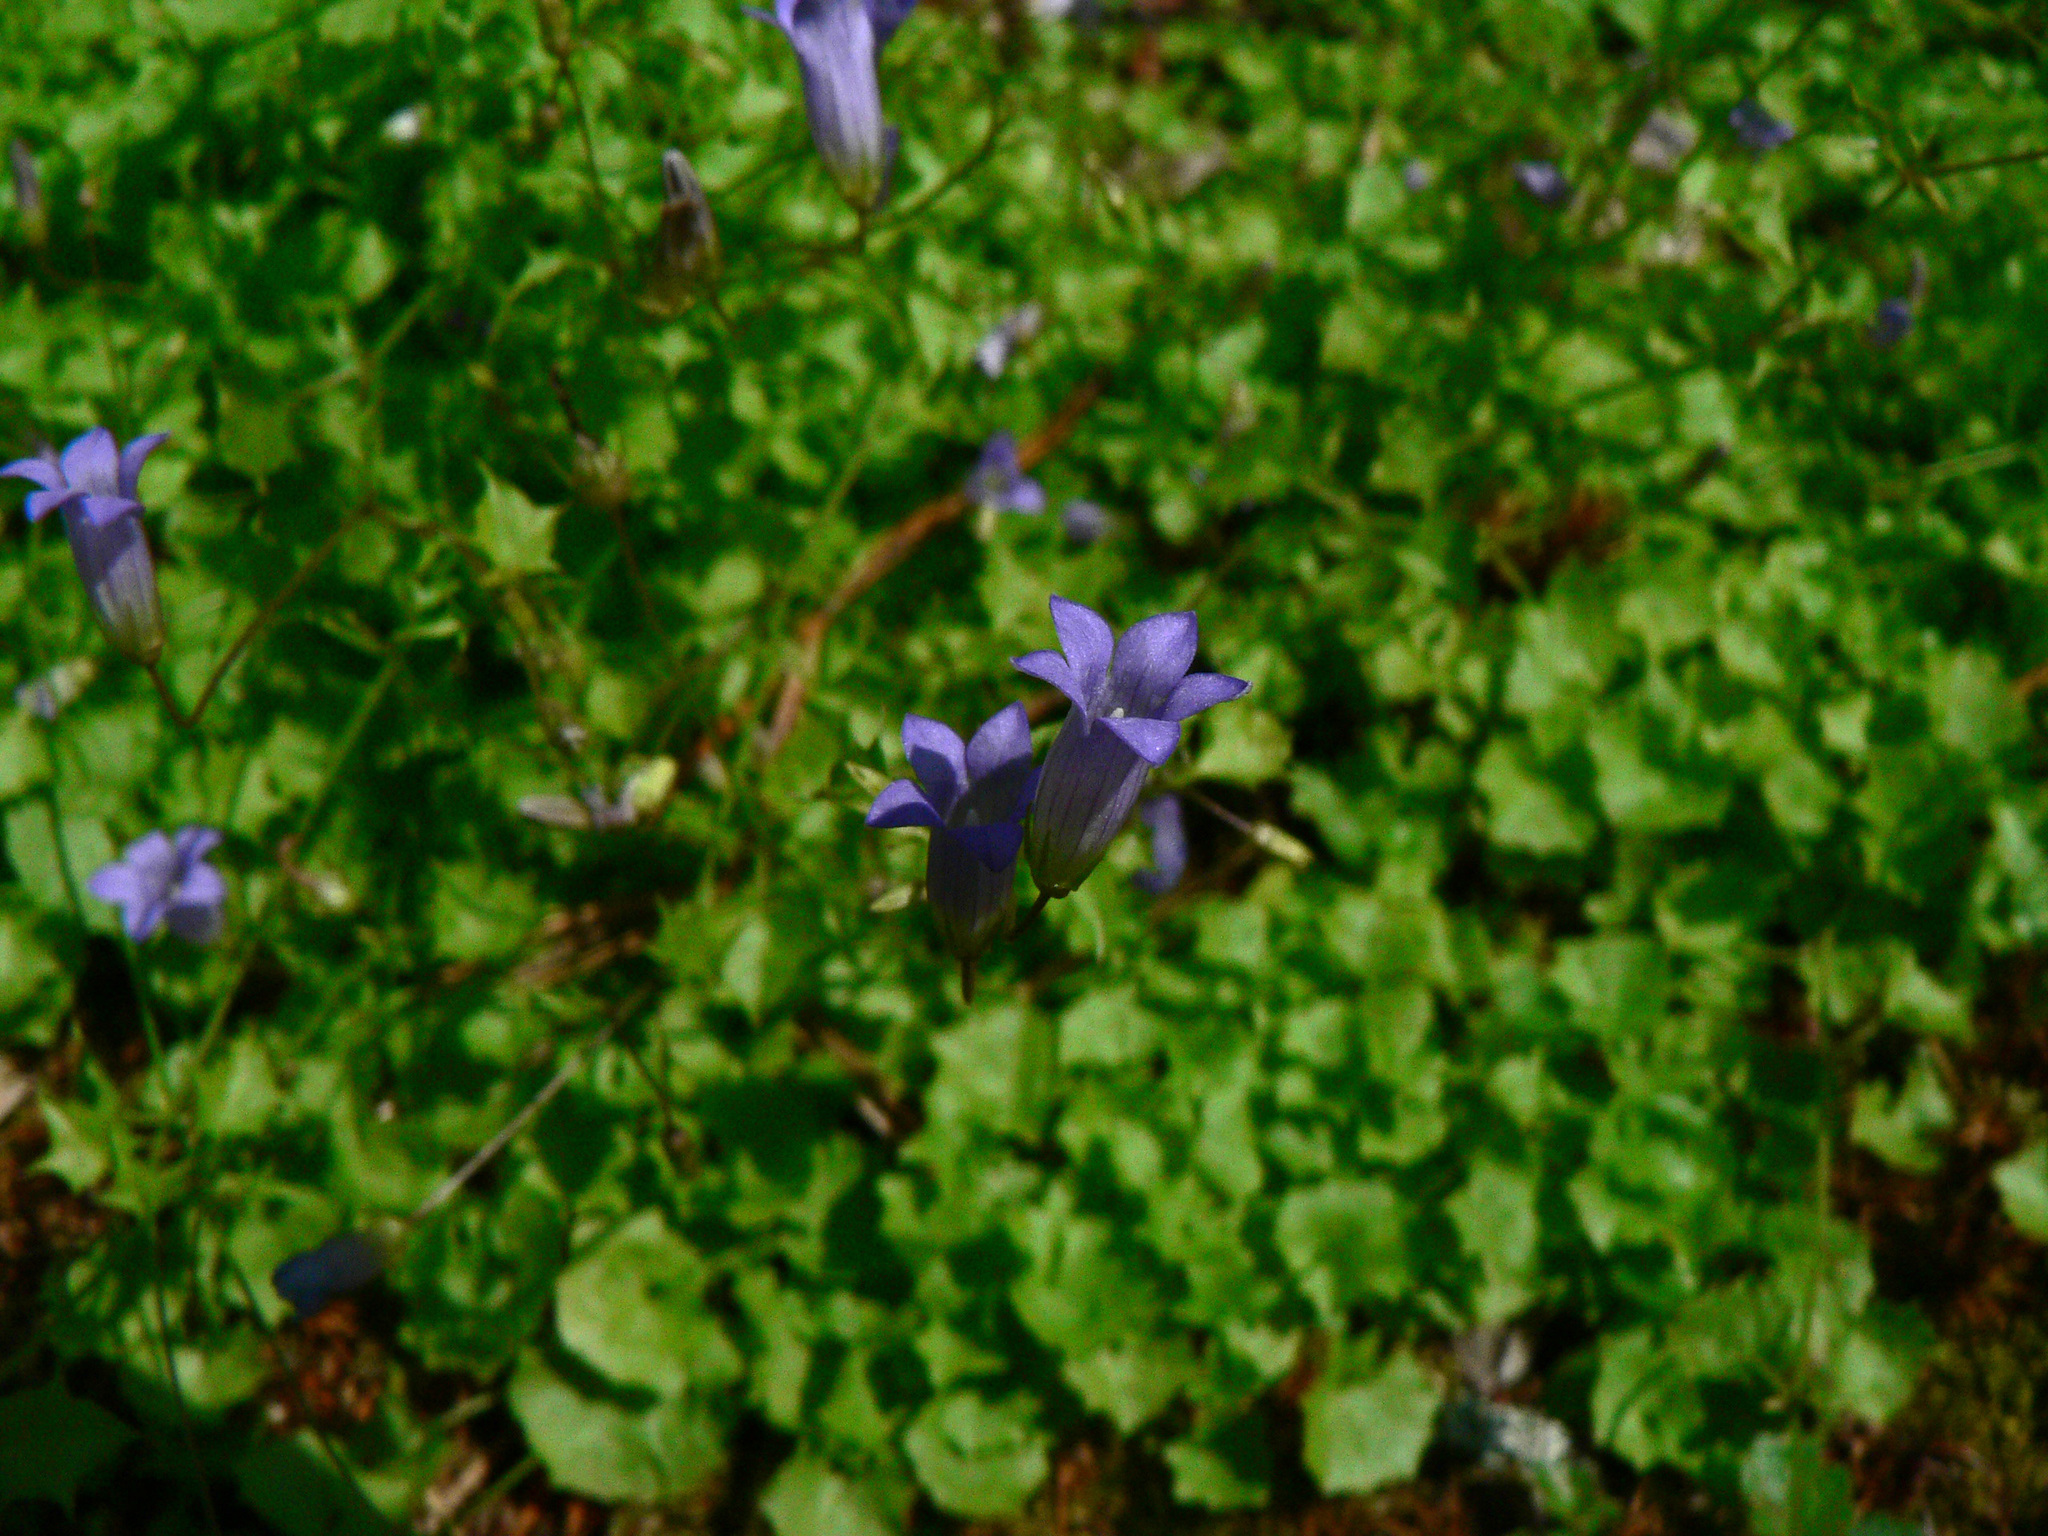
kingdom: Plantae
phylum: Tracheophyta
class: Magnoliopsida
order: Asterales
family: Campanulaceae
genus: Hesperocodon
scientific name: Hesperocodon hederaceus
